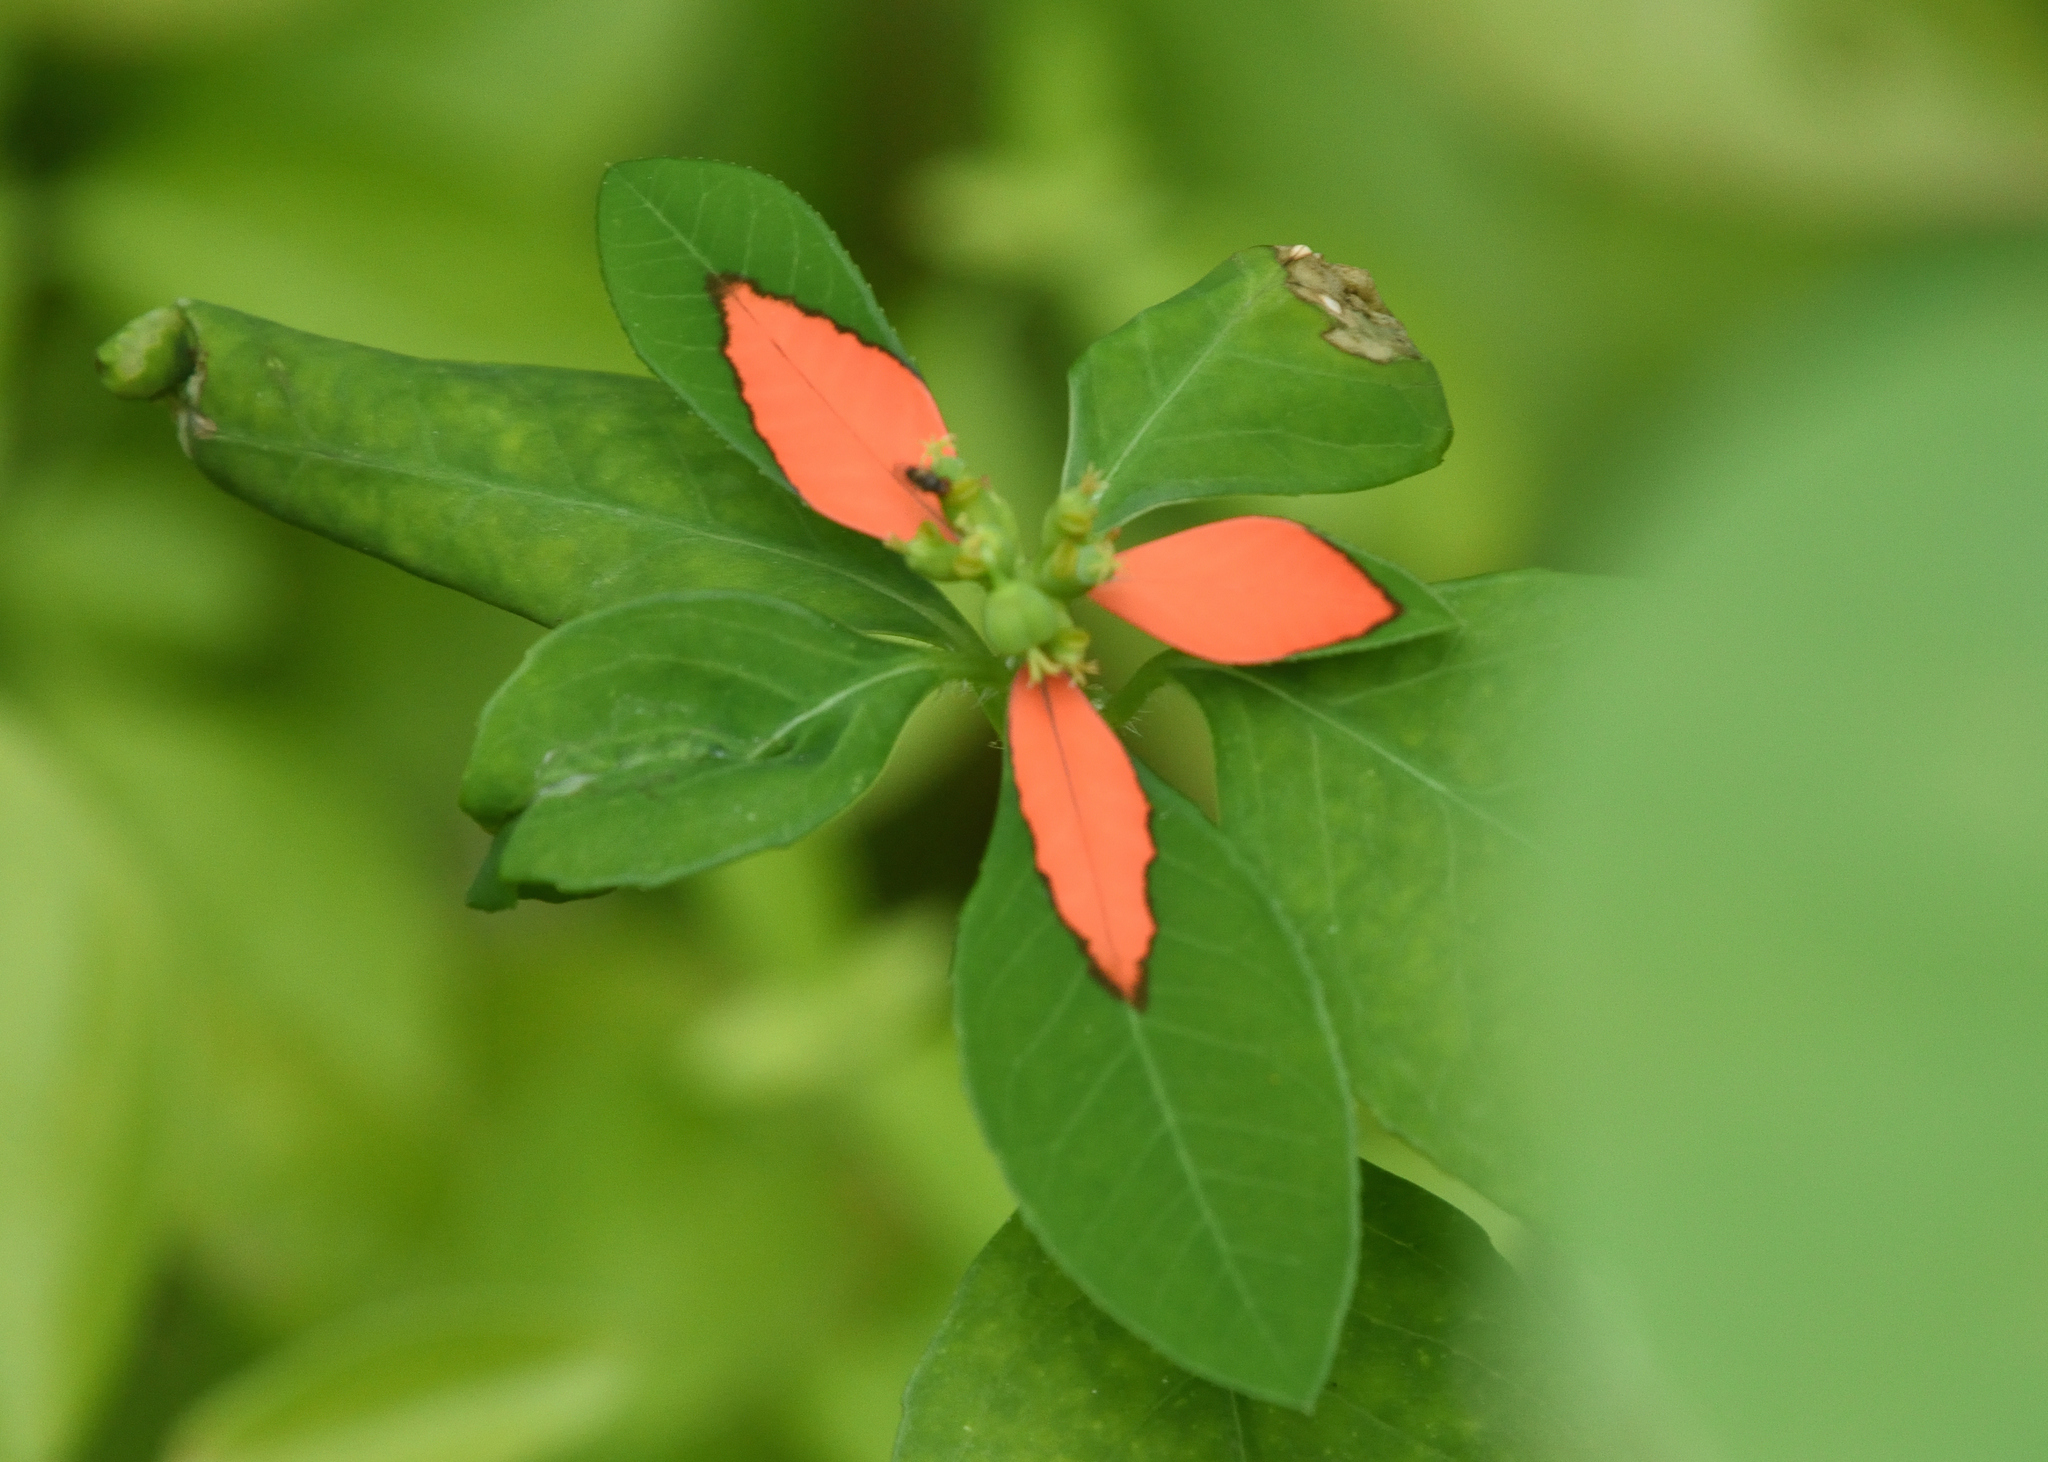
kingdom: Plantae
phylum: Tracheophyta
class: Magnoliopsida
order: Malpighiales
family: Euphorbiaceae
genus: Euphorbia
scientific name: Euphorbia heterophylla
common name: Mexican fireplant
